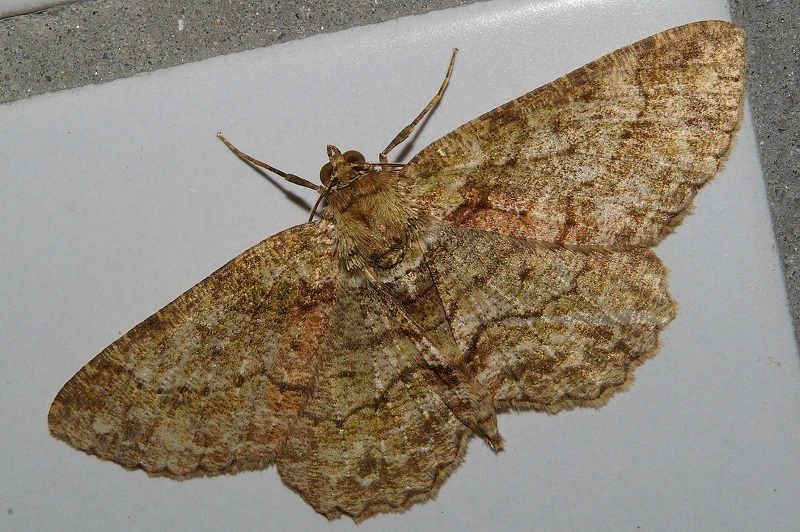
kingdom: Animalia
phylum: Arthropoda
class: Insecta
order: Lepidoptera
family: Geometridae
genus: Paradarisa
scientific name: Paradarisa chloauges
